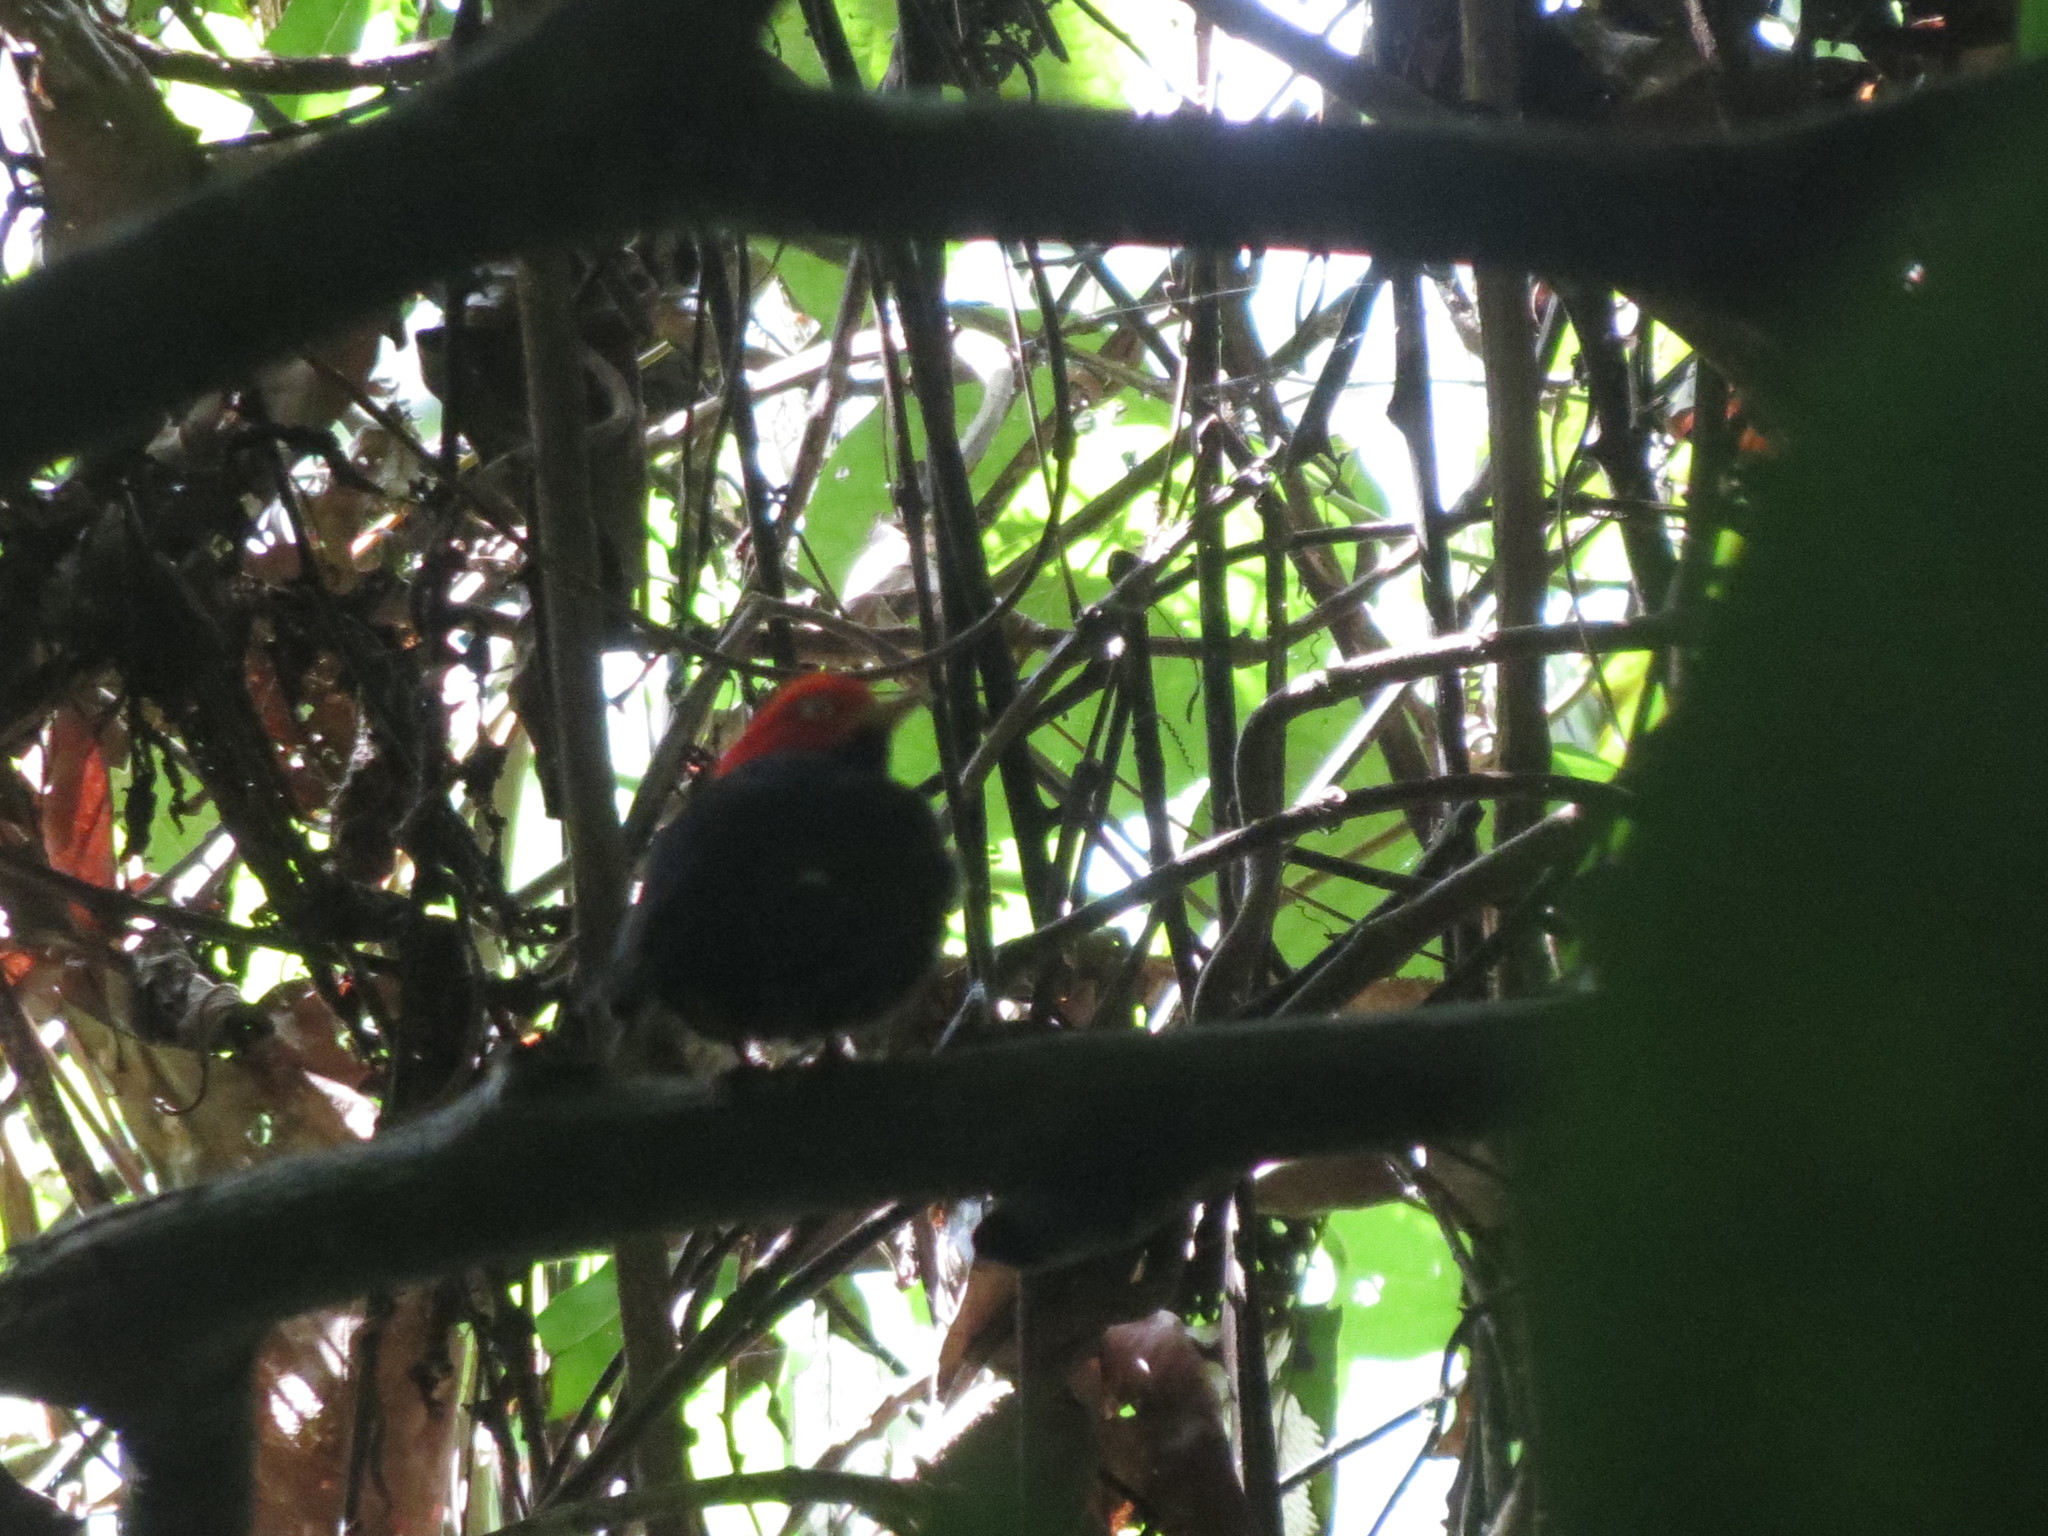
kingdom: Animalia
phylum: Chordata
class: Aves
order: Passeriformes
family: Pipridae
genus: Pipra
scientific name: Pipra mentalis
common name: Red-capped manakin
